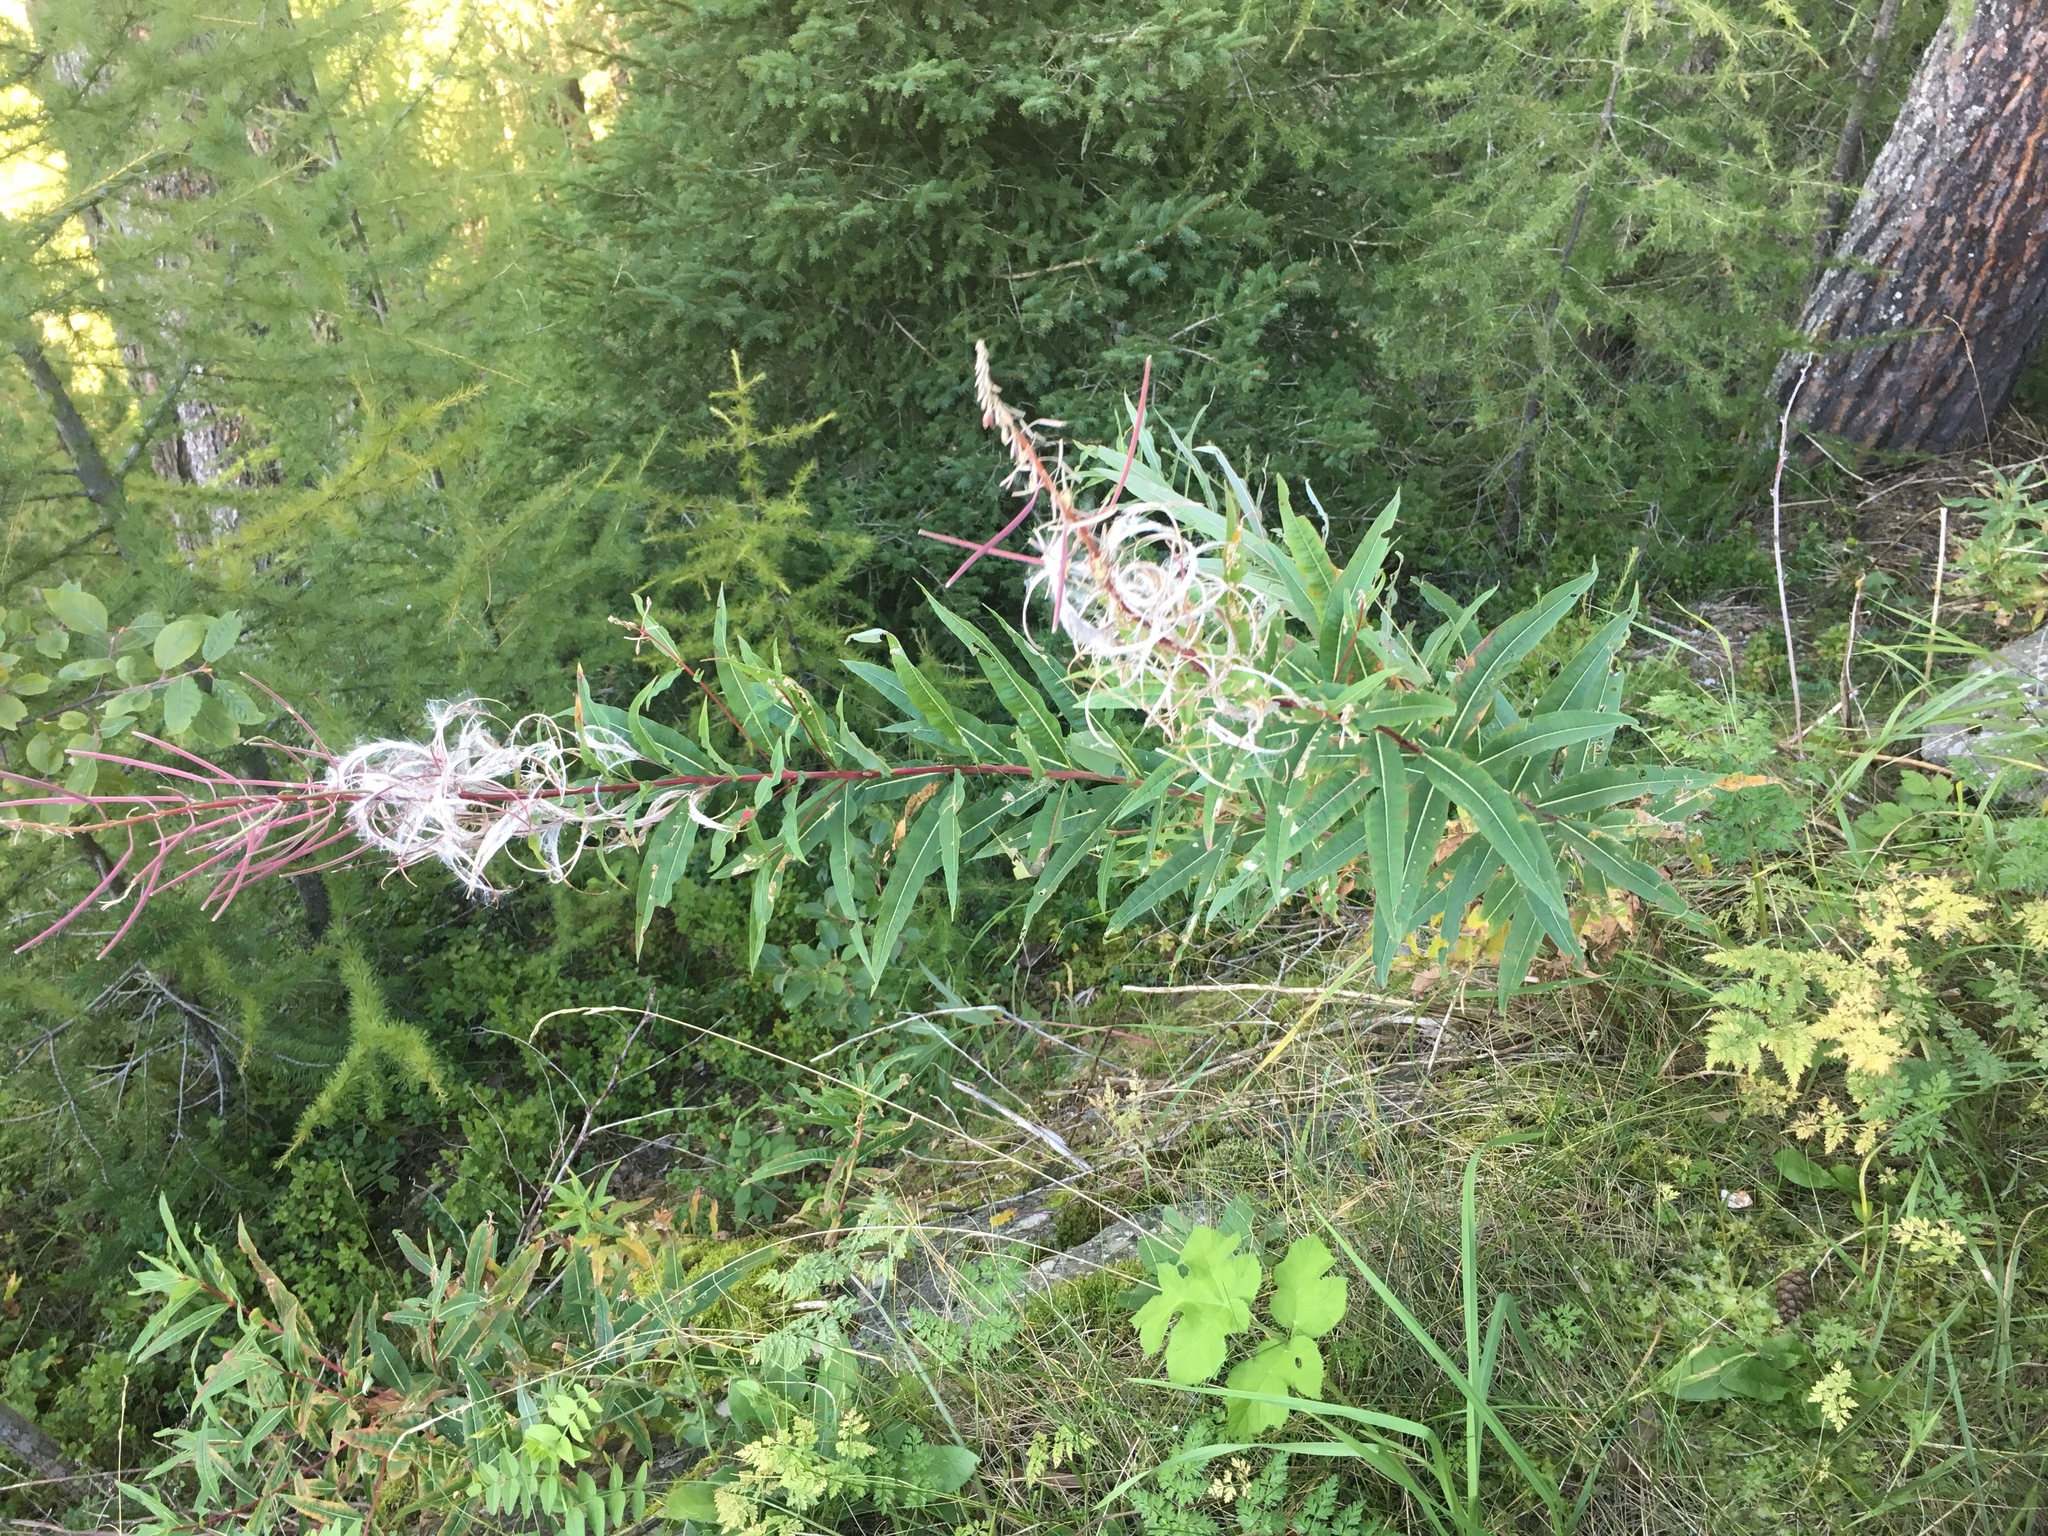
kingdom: Plantae
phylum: Tracheophyta
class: Magnoliopsida
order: Myrtales
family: Onagraceae
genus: Chamaenerion
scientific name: Chamaenerion angustifolium
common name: Fireweed
